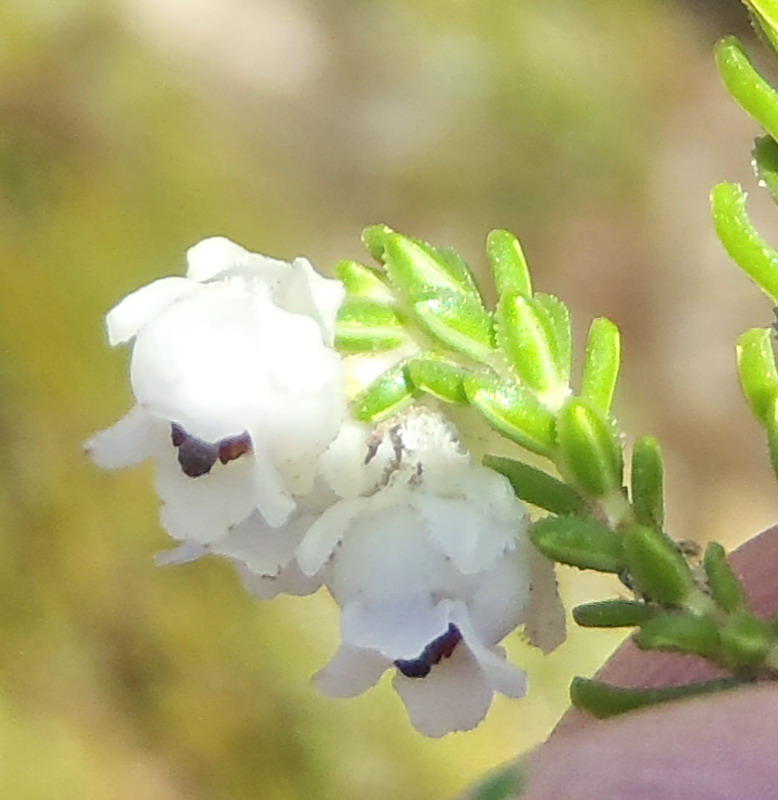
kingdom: Plantae
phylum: Tracheophyta
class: Magnoliopsida
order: Ericales
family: Ericaceae
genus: Erica
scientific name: Erica fimbriata
